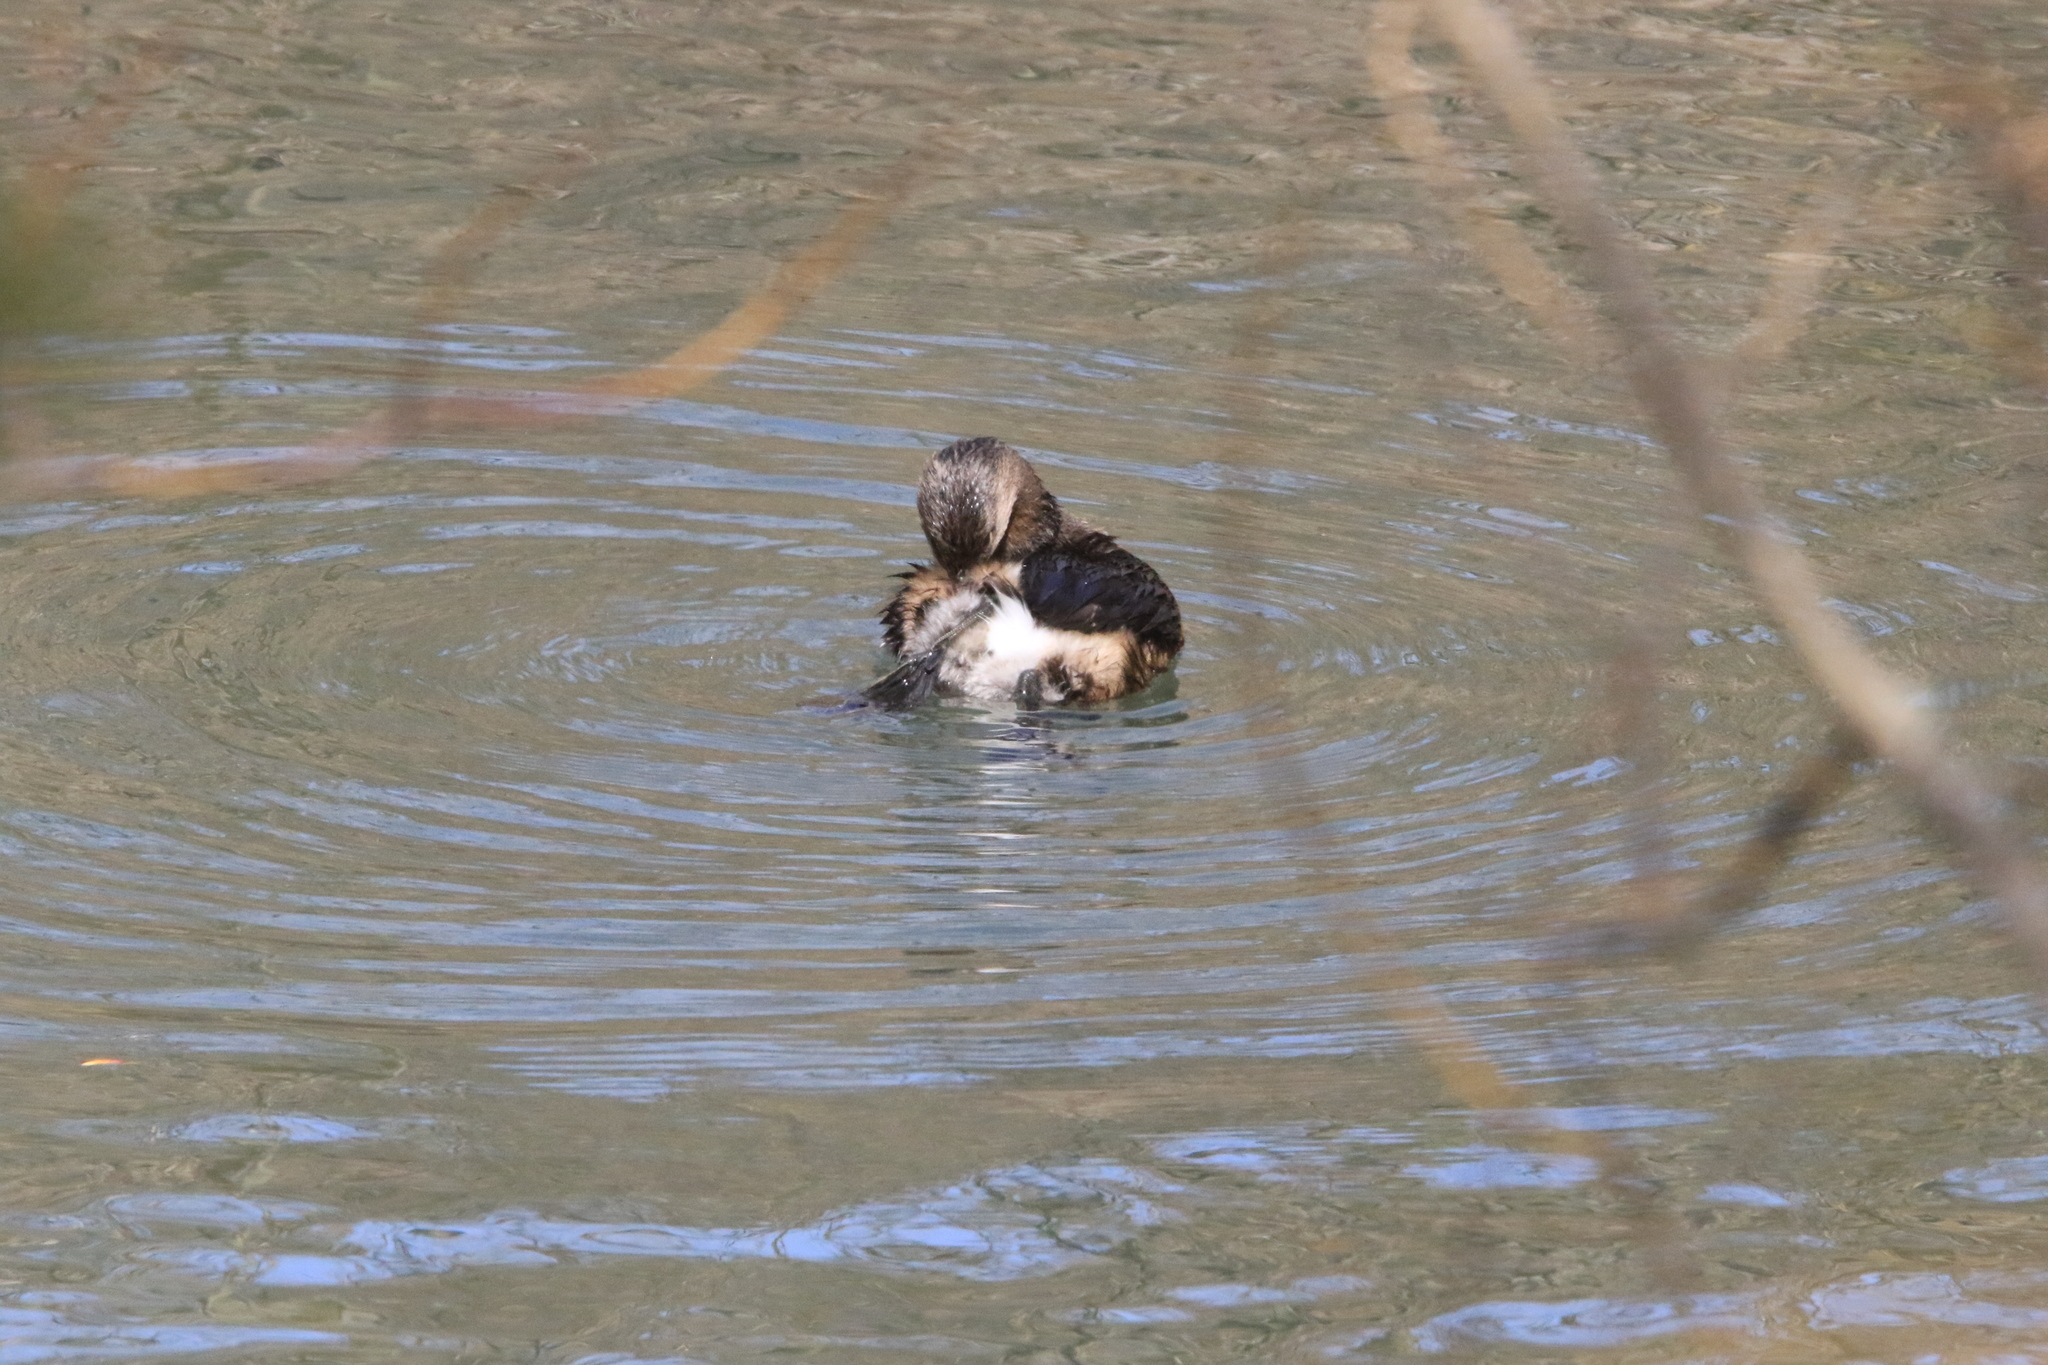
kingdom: Animalia
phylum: Chordata
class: Aves
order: Podicipediformes
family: Podicipedidae
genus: Podilymbus
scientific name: Podilymbus podiceps
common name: Pied-billed grebe
